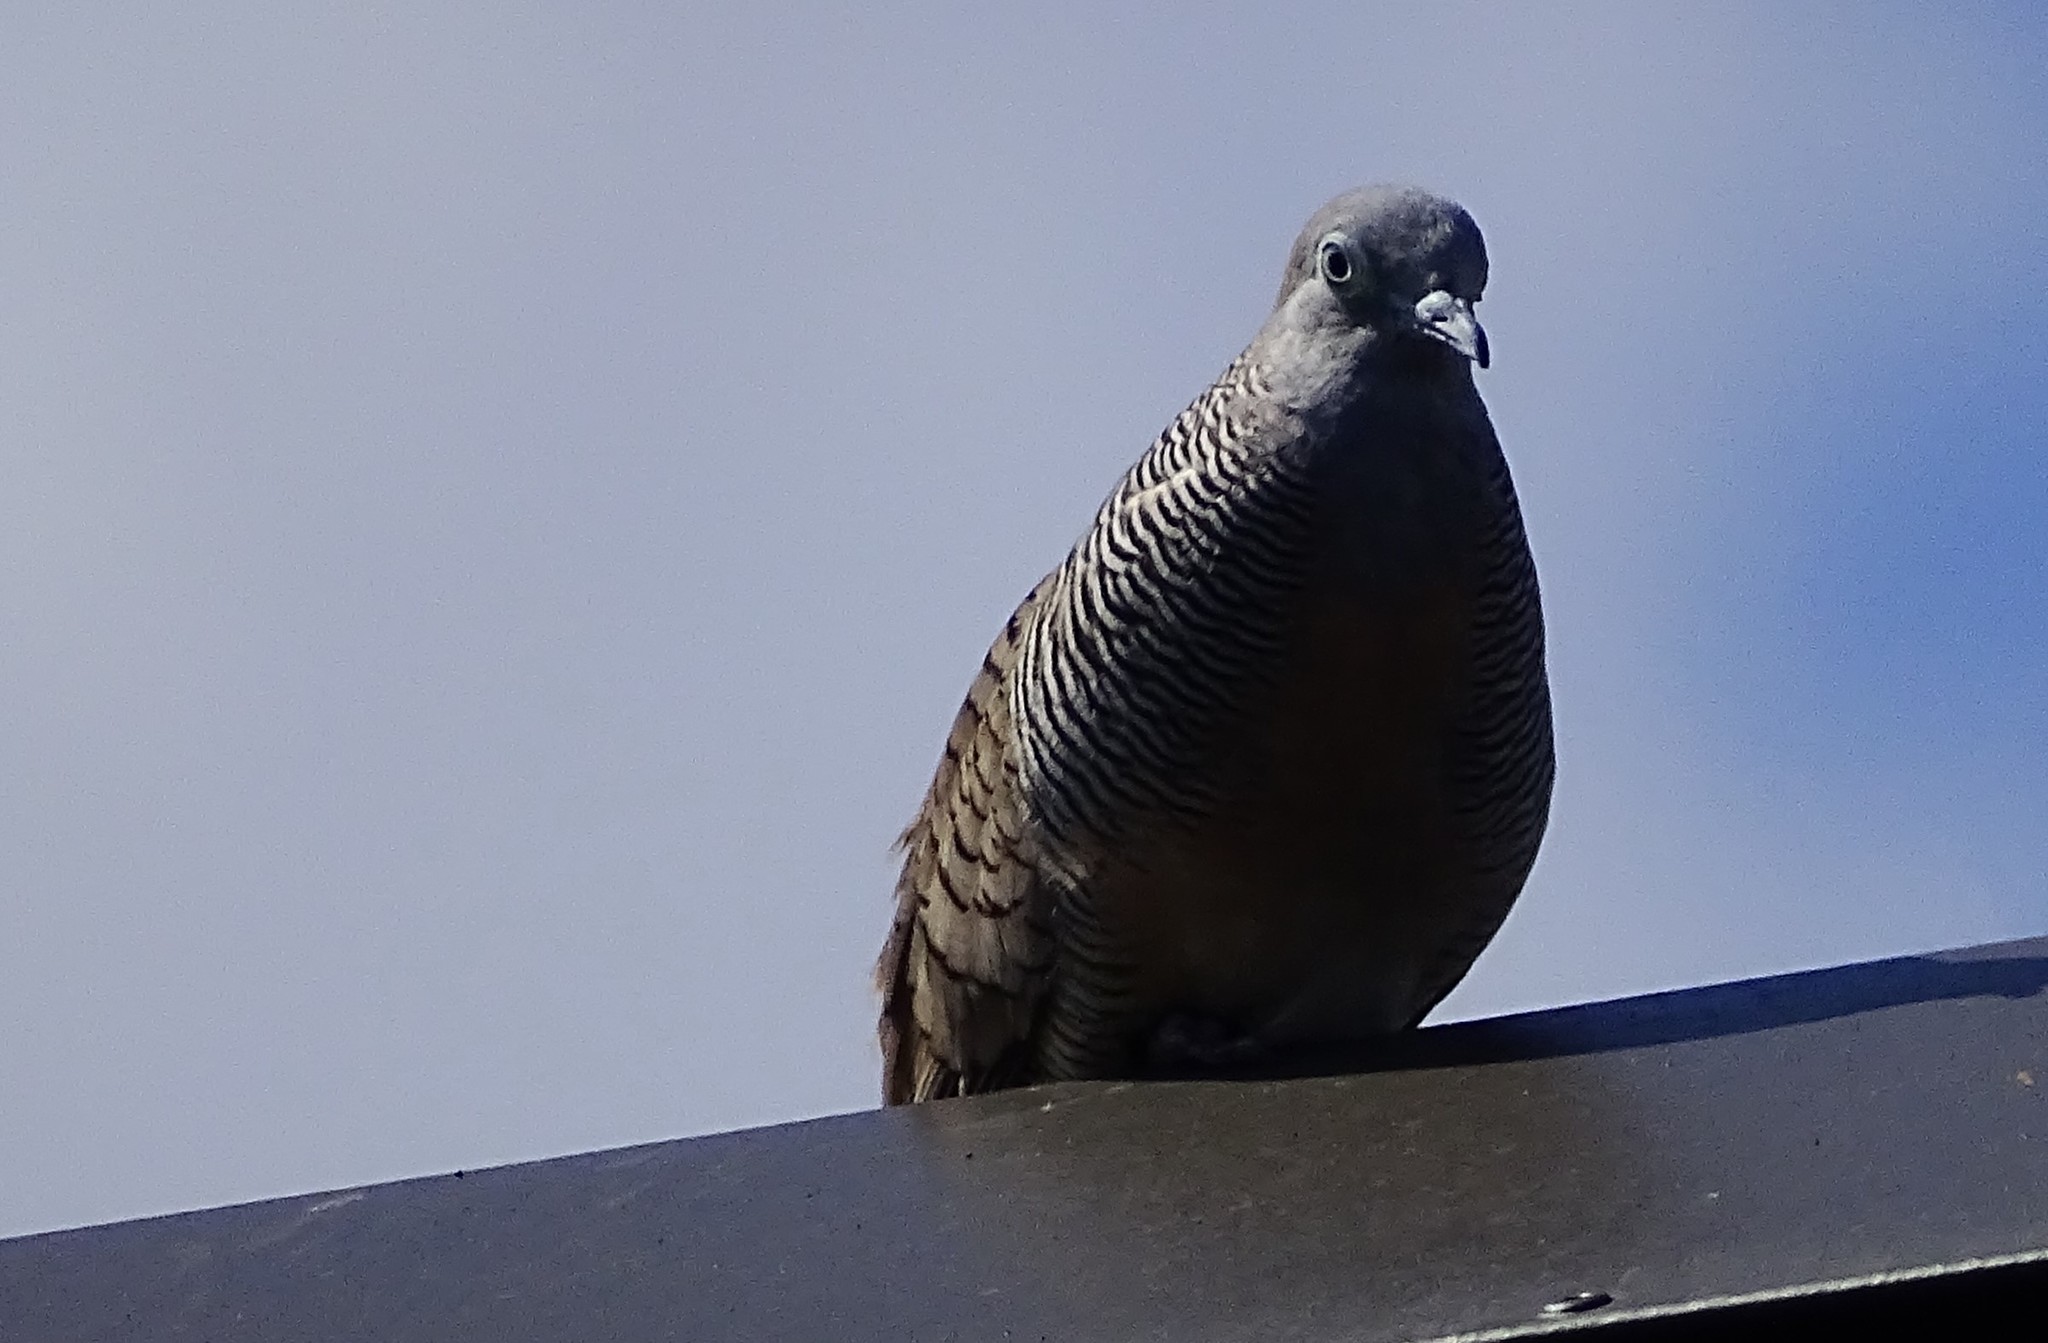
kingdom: Animalia
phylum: Chordata
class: Aves
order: Columbiformes
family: Columbidae
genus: Geopelia
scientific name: Geopelia striata
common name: Zebra dove
